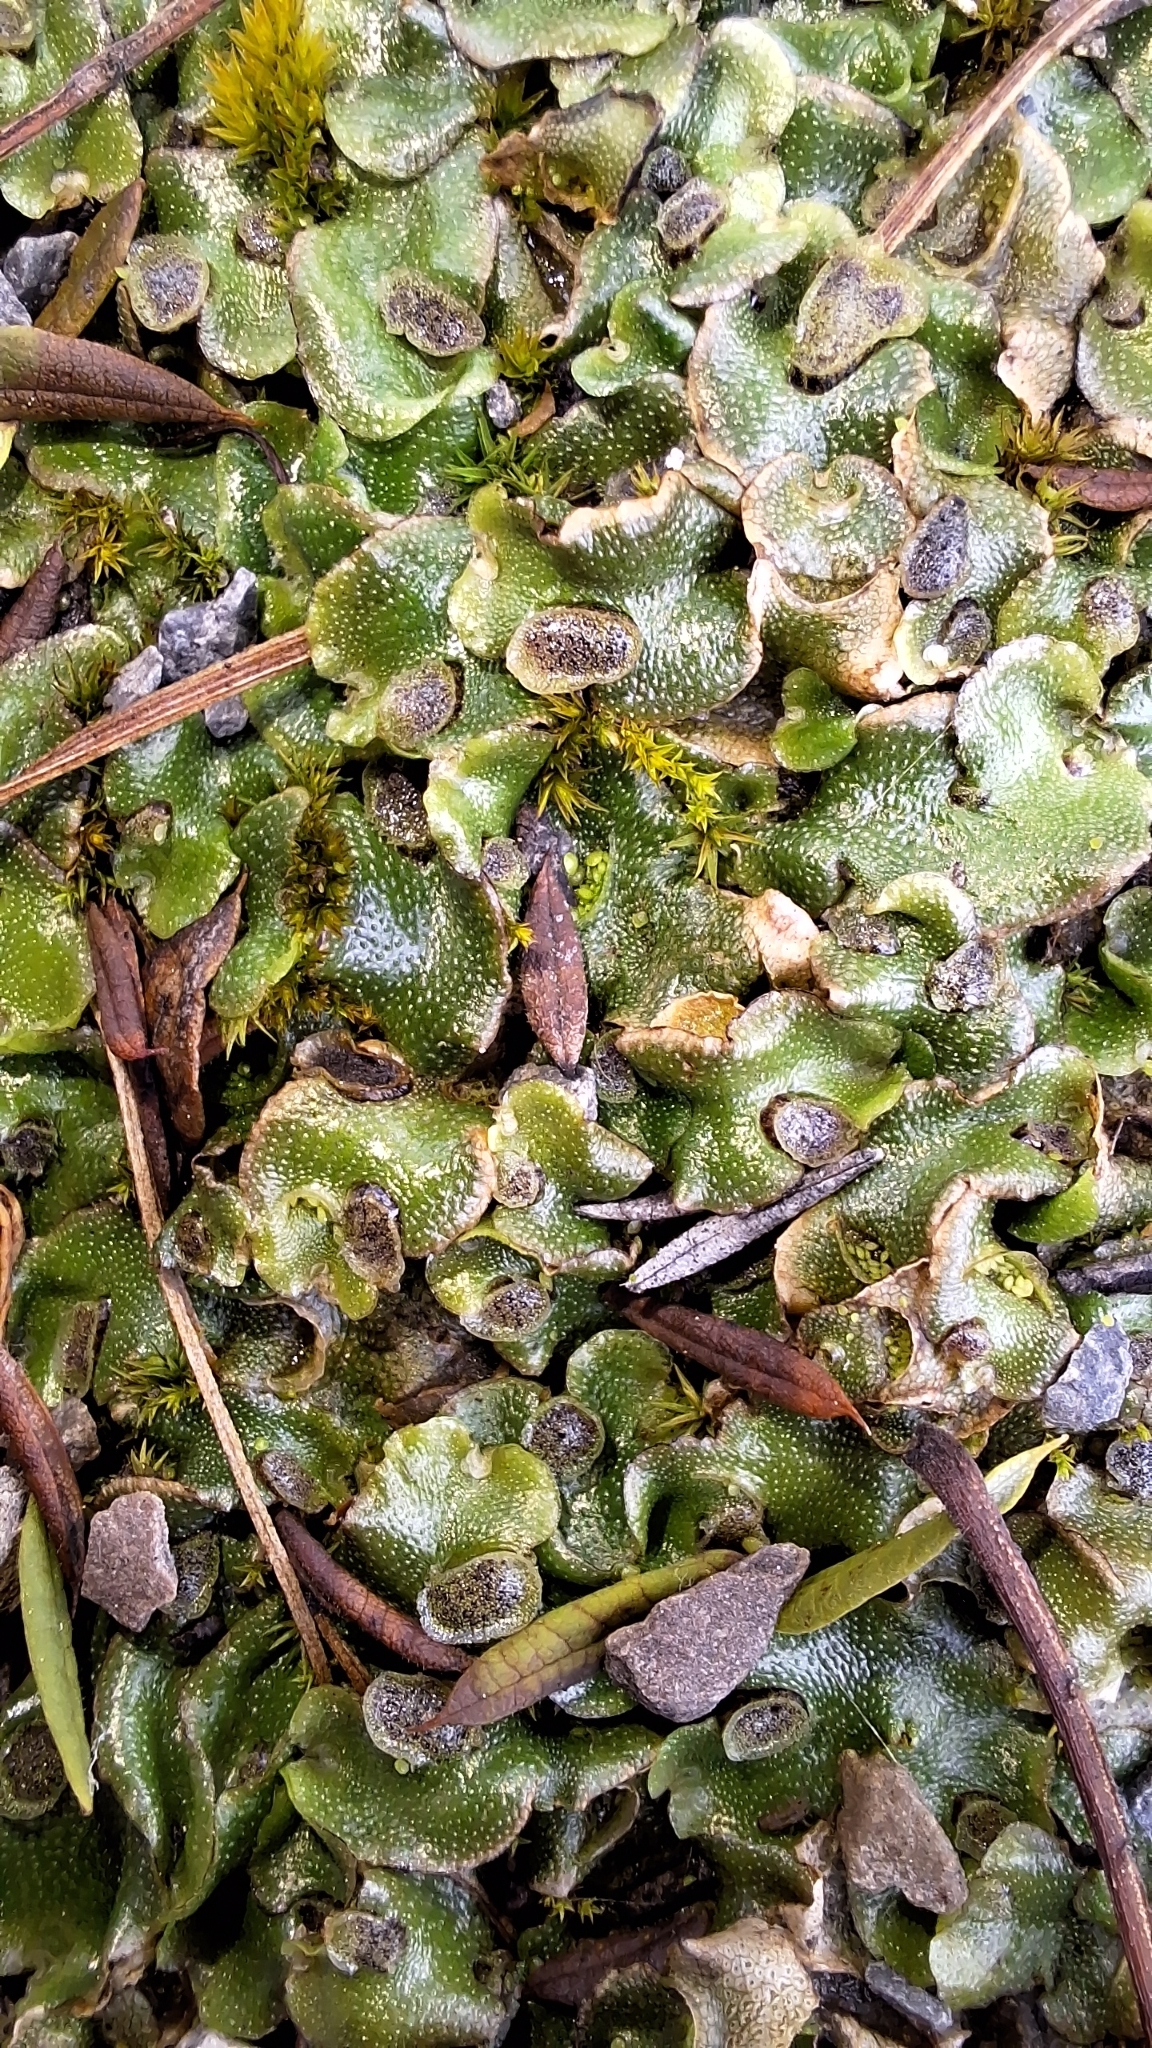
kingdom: Plantae
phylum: Marchantiophyta
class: Marchantiopsida
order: Lunulariales
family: Lunulariaceae
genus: Lunularia
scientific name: Lunularia cruciata
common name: Crescent-cup liverwort
